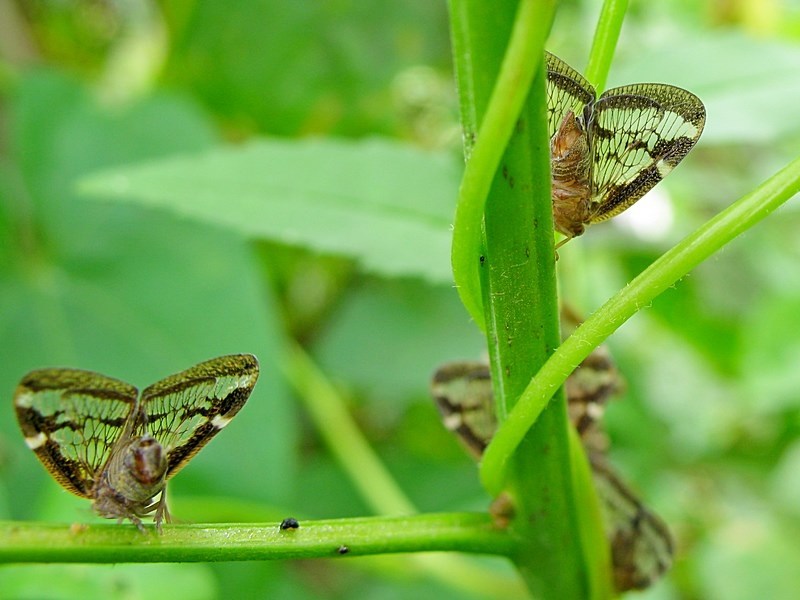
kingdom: Animalia
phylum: Arthropoda
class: Insecta
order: Hemiptera
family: Ricaniidae
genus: Scolypopa
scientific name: Scolypopa australis
